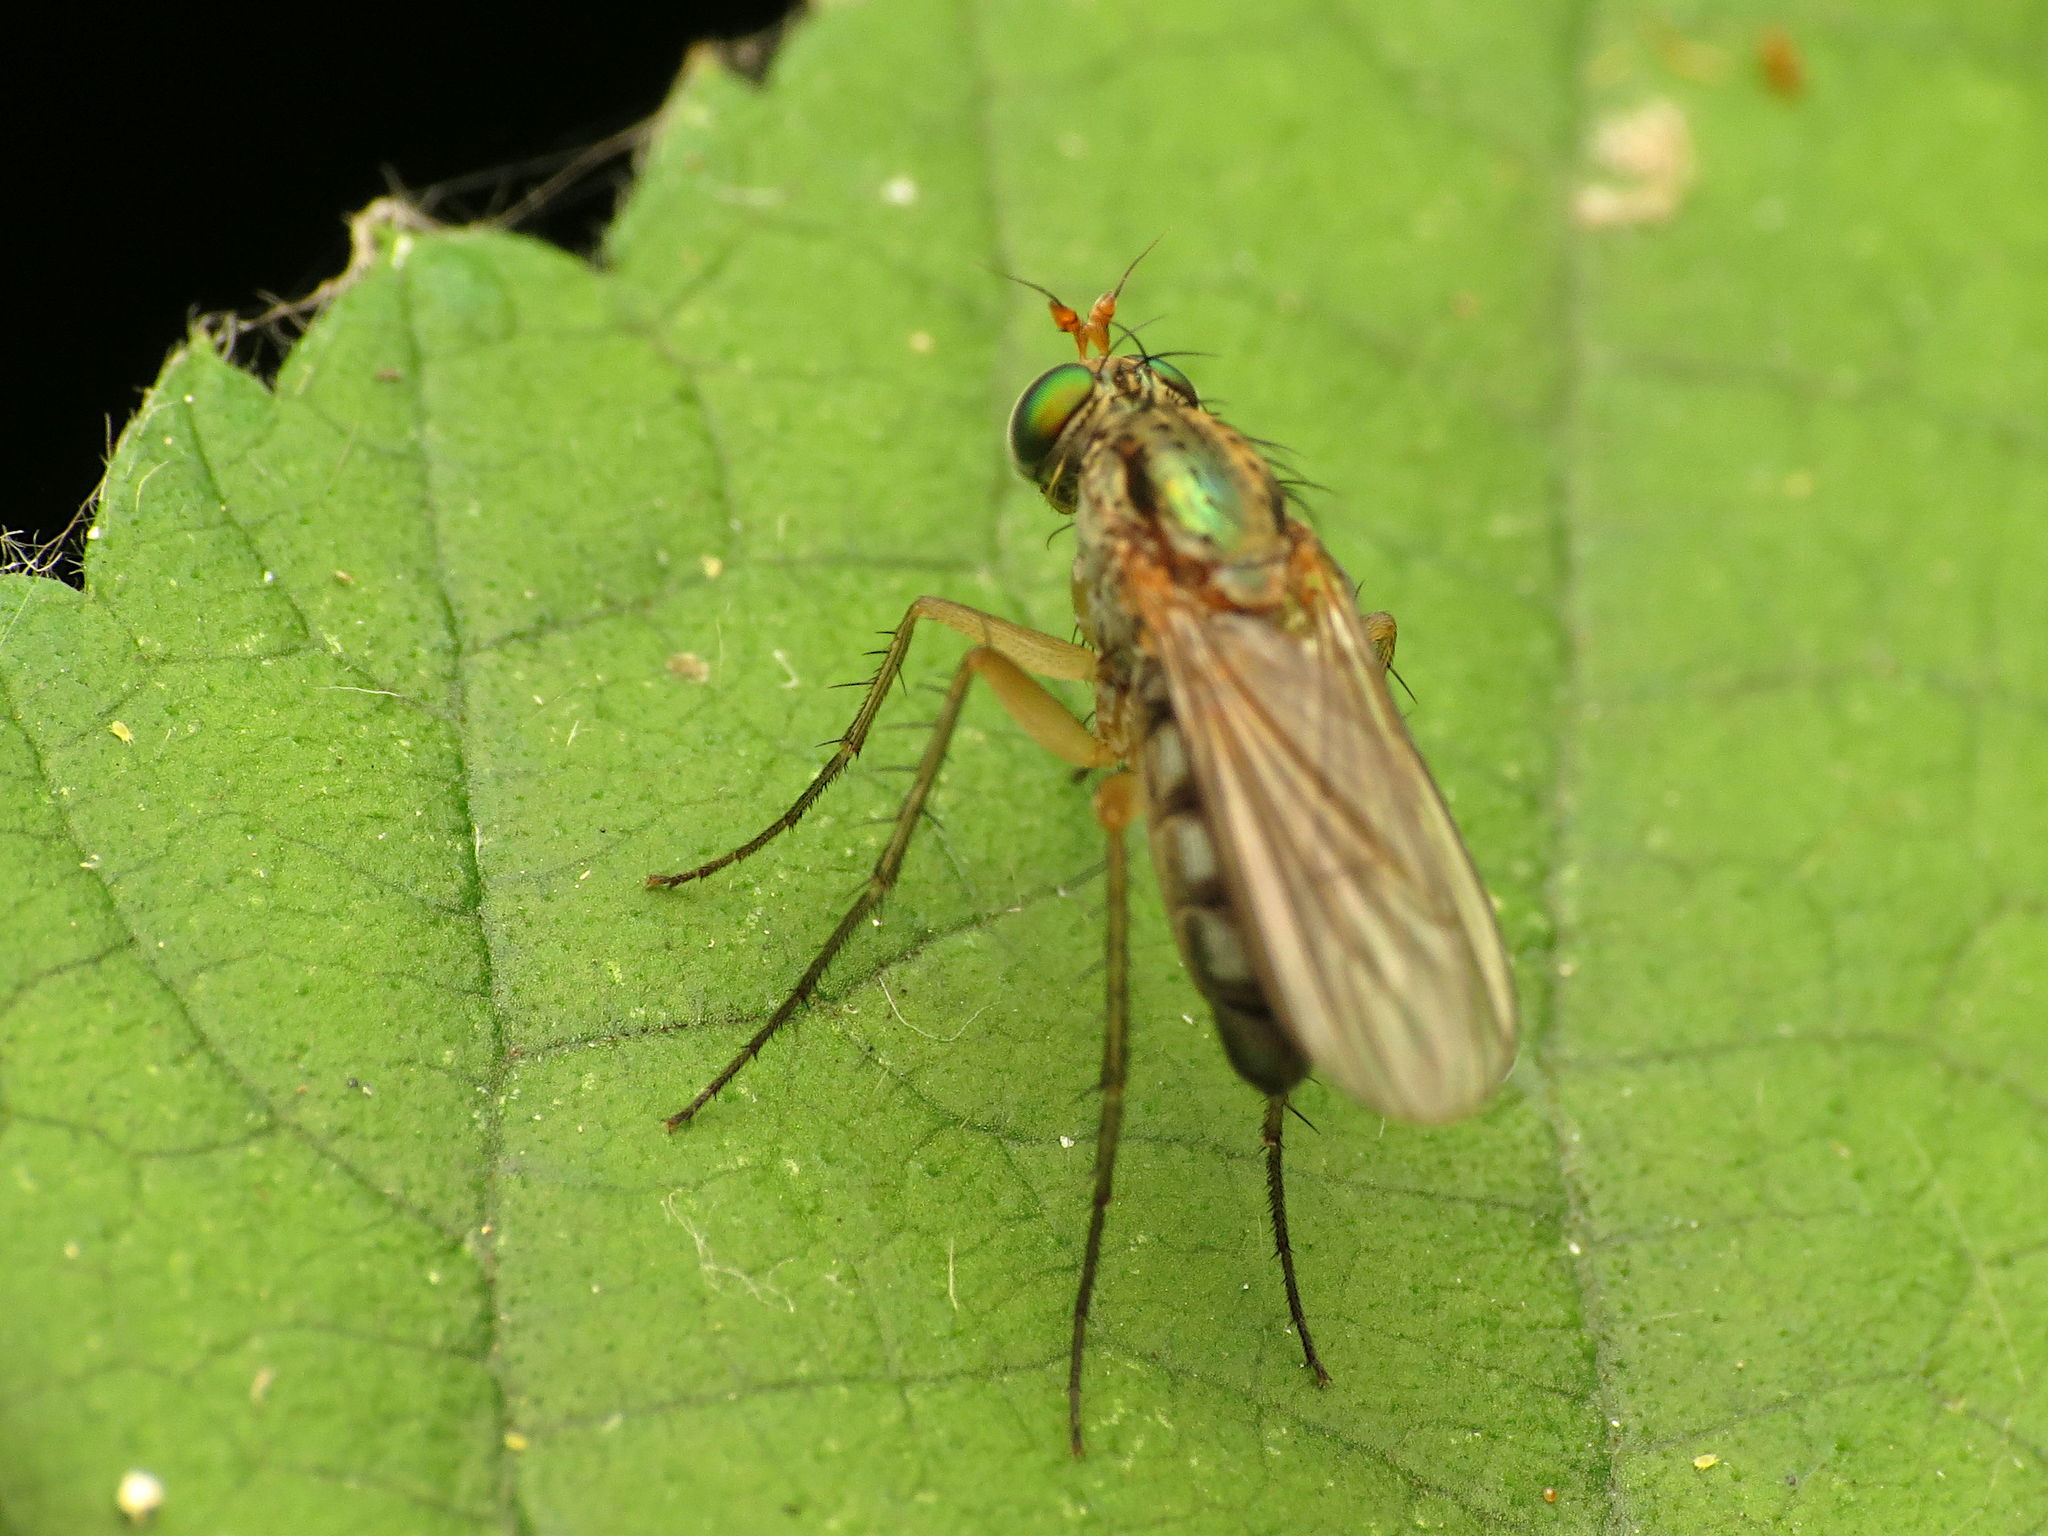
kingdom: Animalia
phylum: Arthropoda
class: Insecta
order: Diptera
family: Dolichopodidae
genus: Dolichopus
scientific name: Dolichopus
